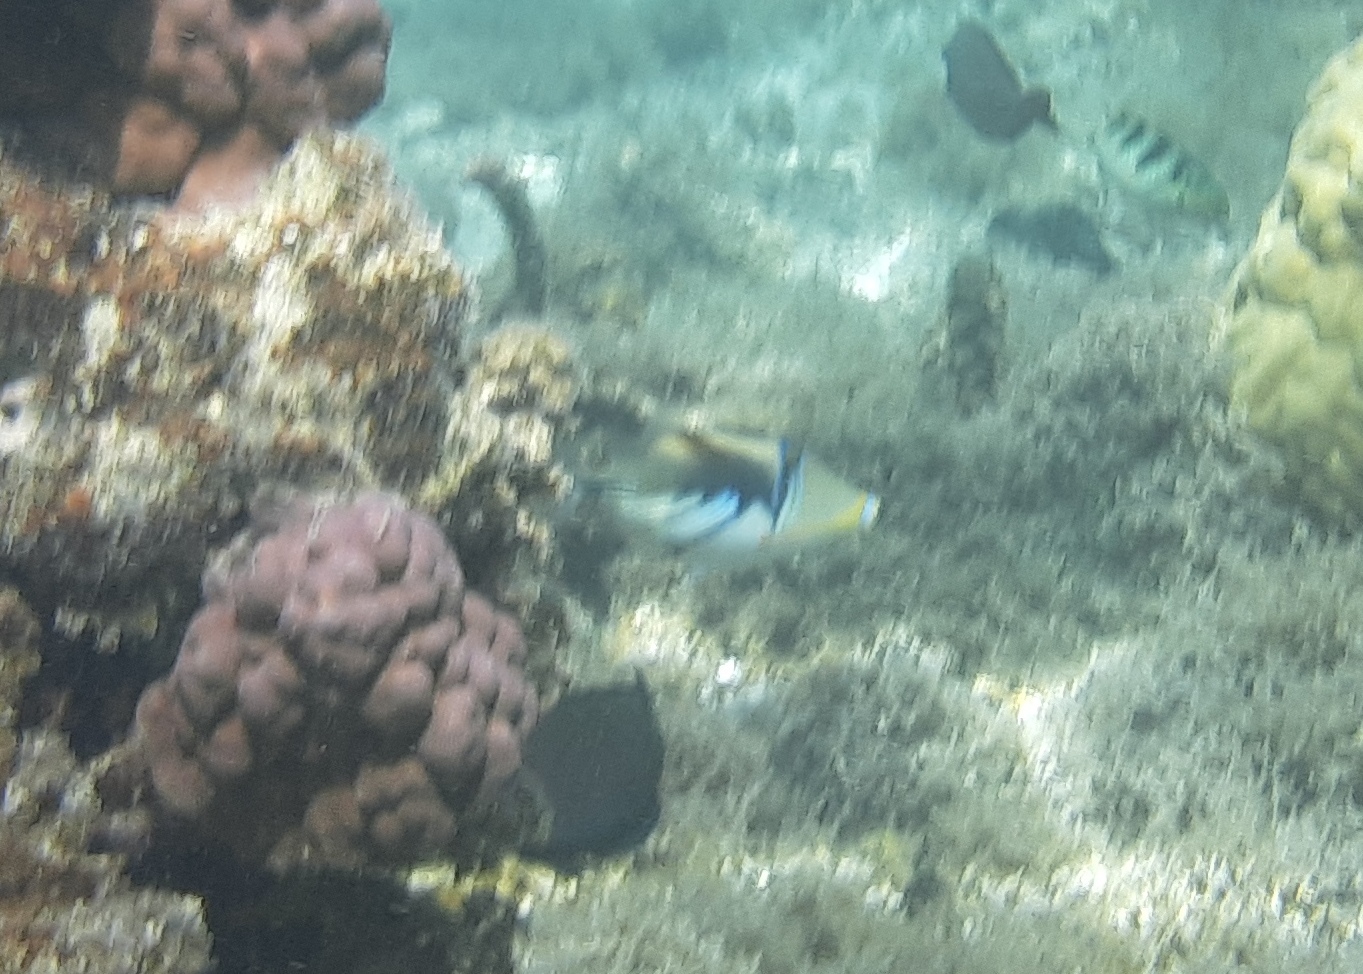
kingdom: Animalia
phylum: Chordata
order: Tetraodontiformes
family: Balistidae
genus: Rhinecanthus
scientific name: Rhinecanthus aculeatus
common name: White-banded triggerfish
